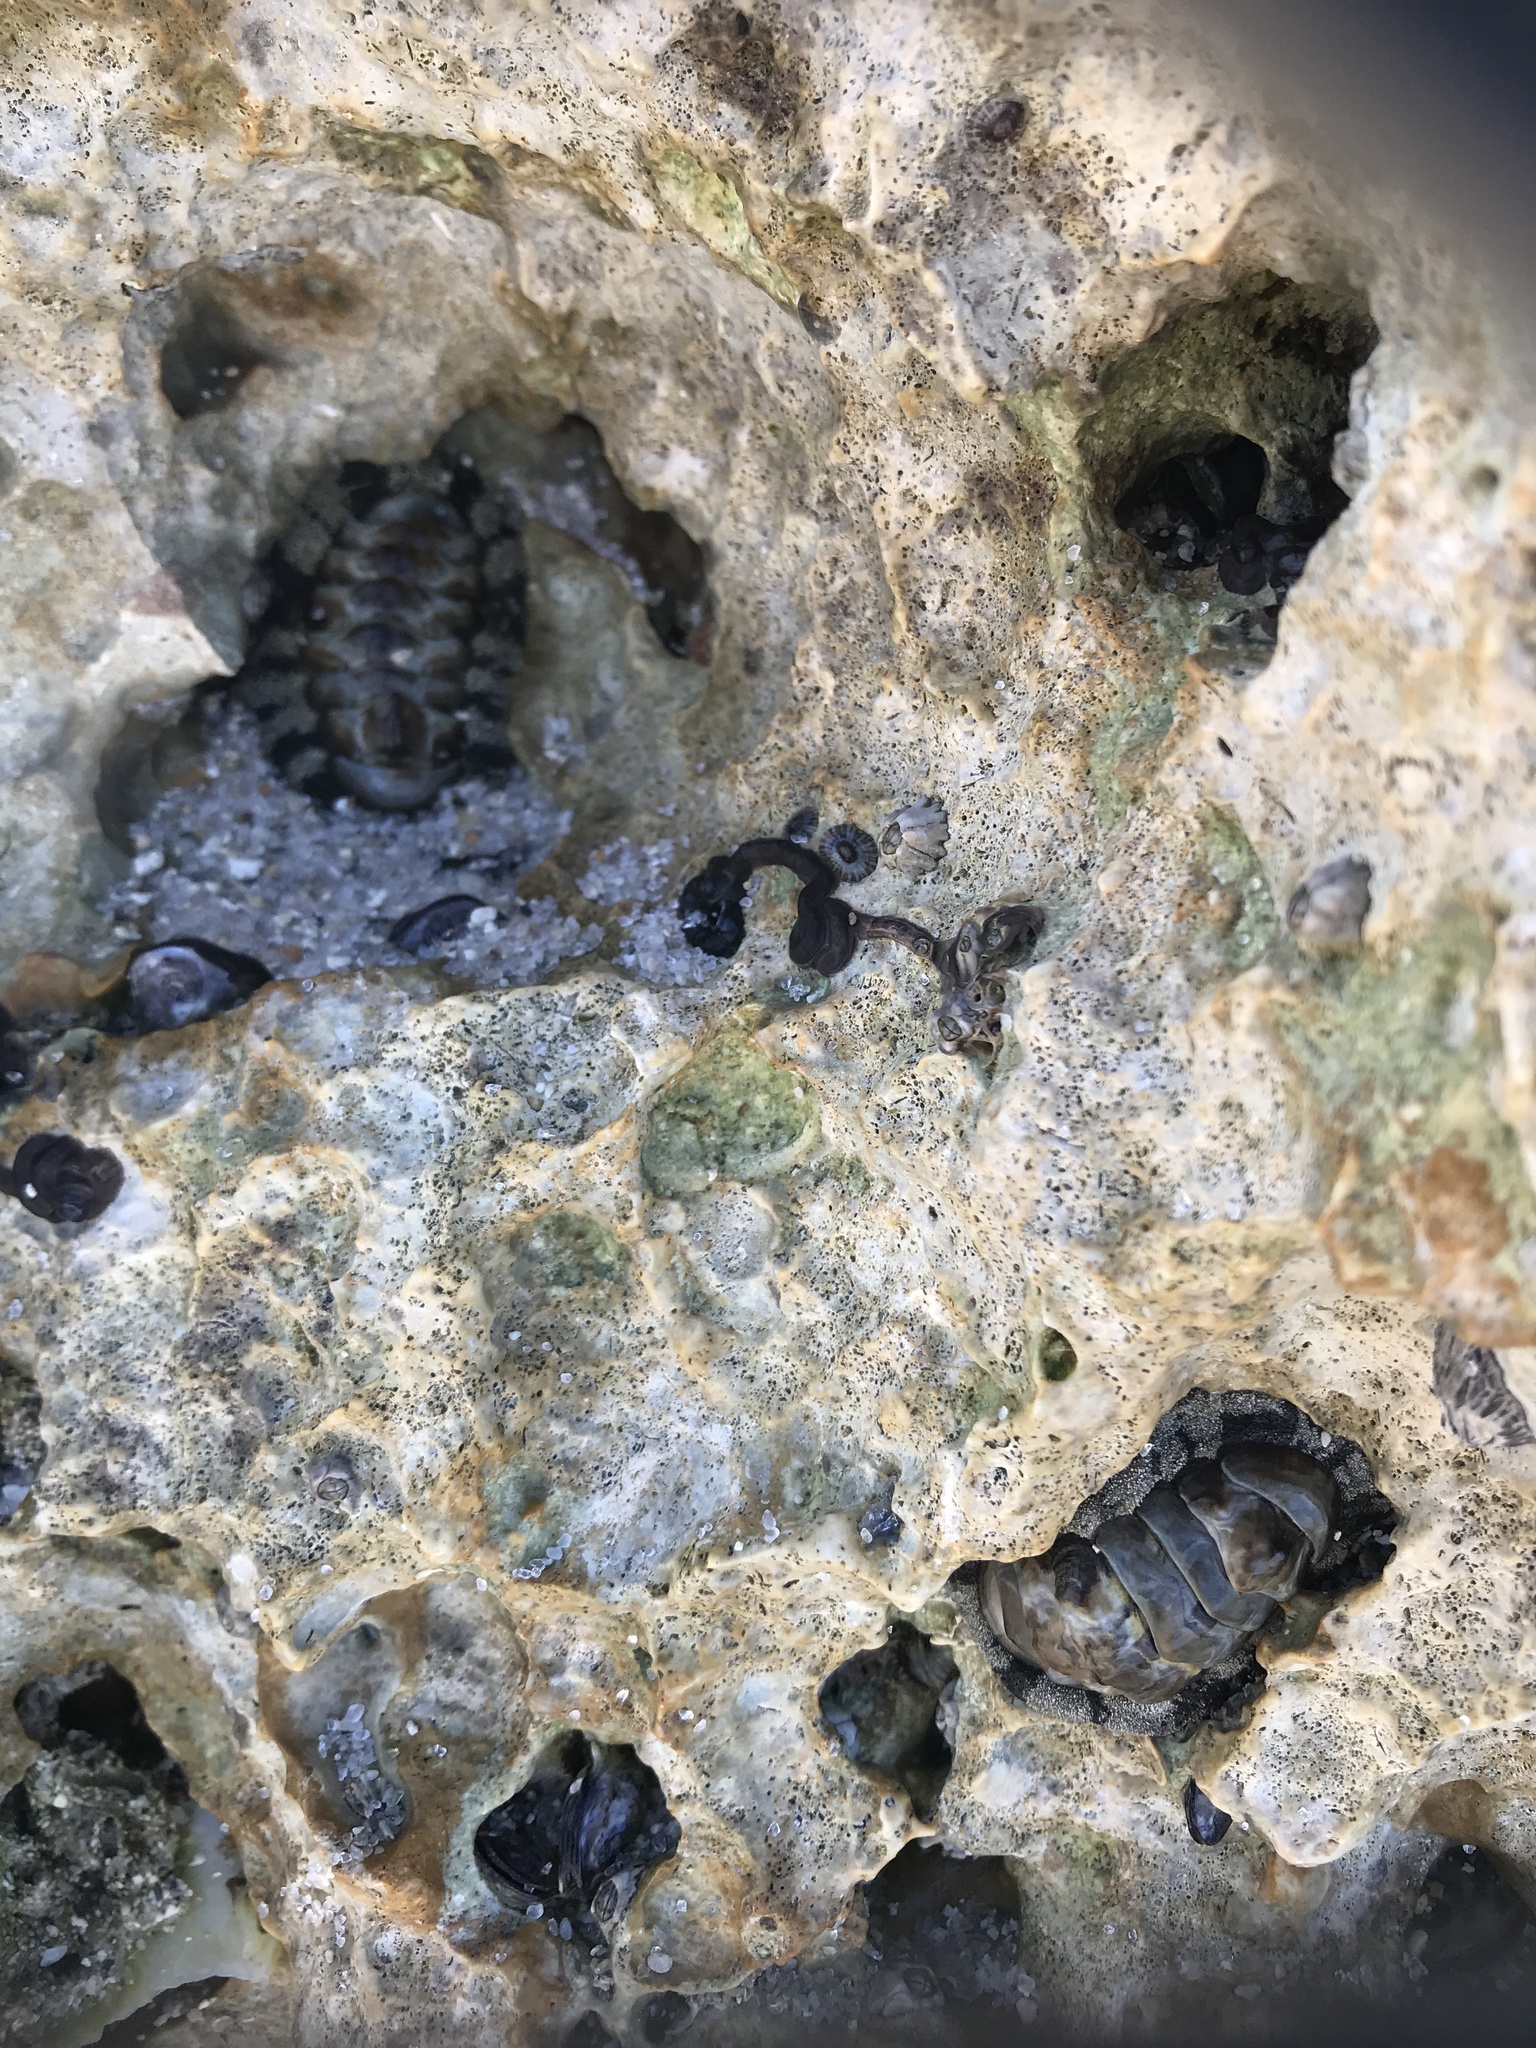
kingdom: Animalia
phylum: Mollusca
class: Polyplacophora
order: Chitonida
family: Chitonidae
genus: Acanthopleura
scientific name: Acanthopleura granulata
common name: West indian fuzzy chiton
